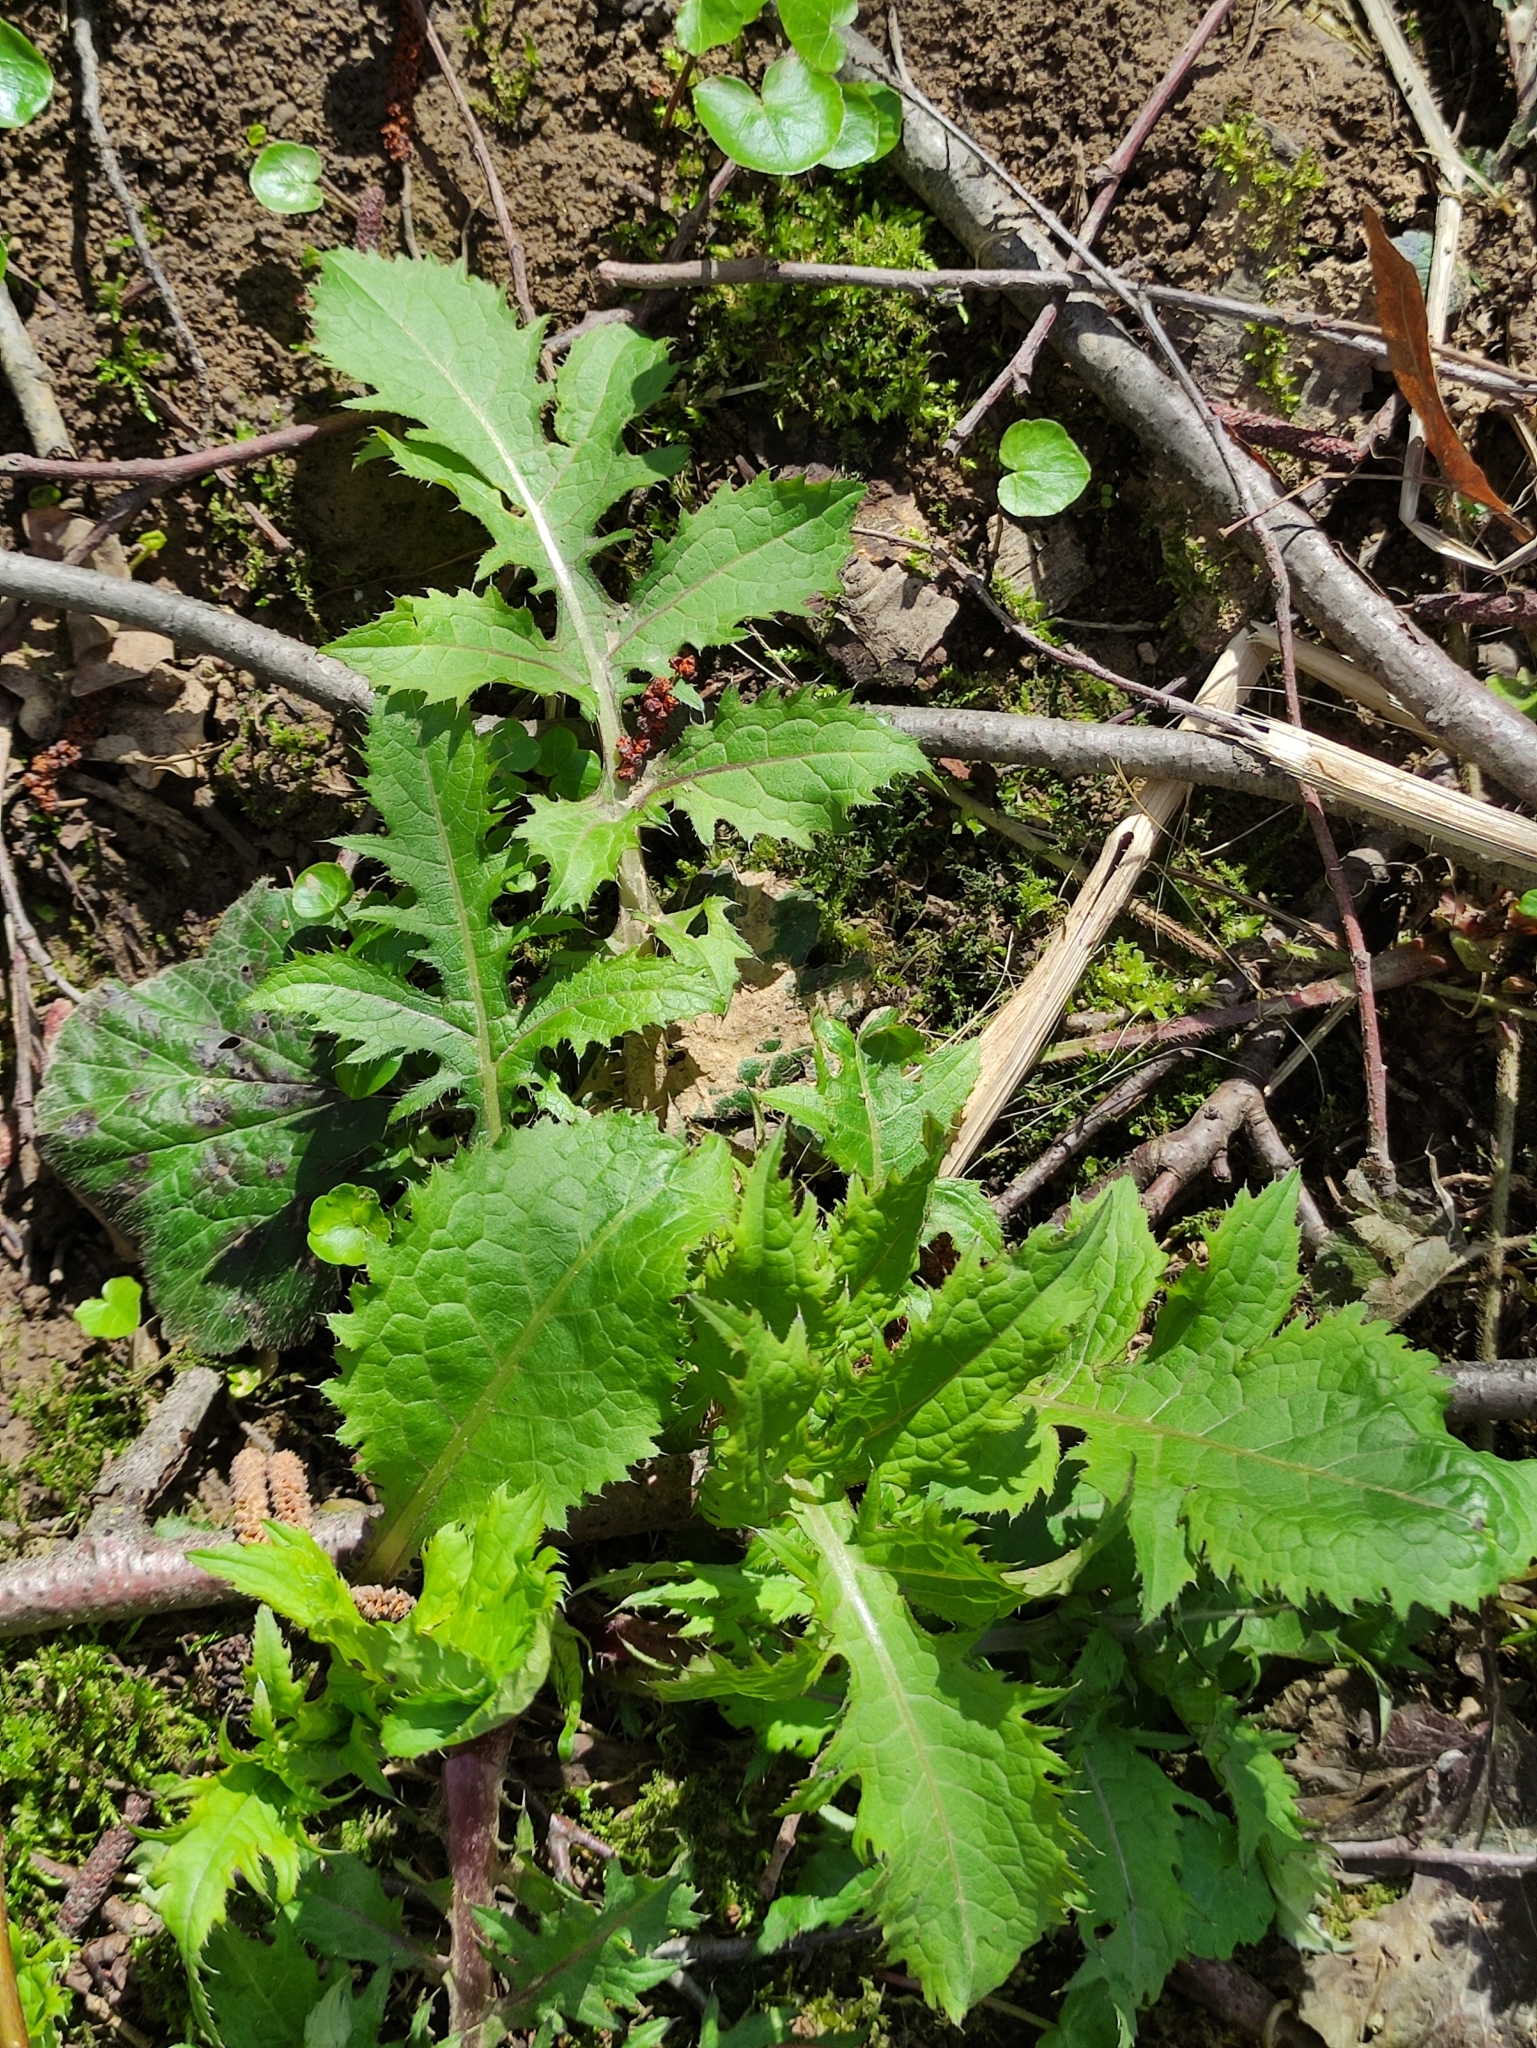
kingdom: Plantae
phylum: Tracheophyta
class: Magnoliopsida
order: Asterales
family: Asteraceae
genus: Cirsium
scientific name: Cirsium oleraceum
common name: Cabbage thistle
